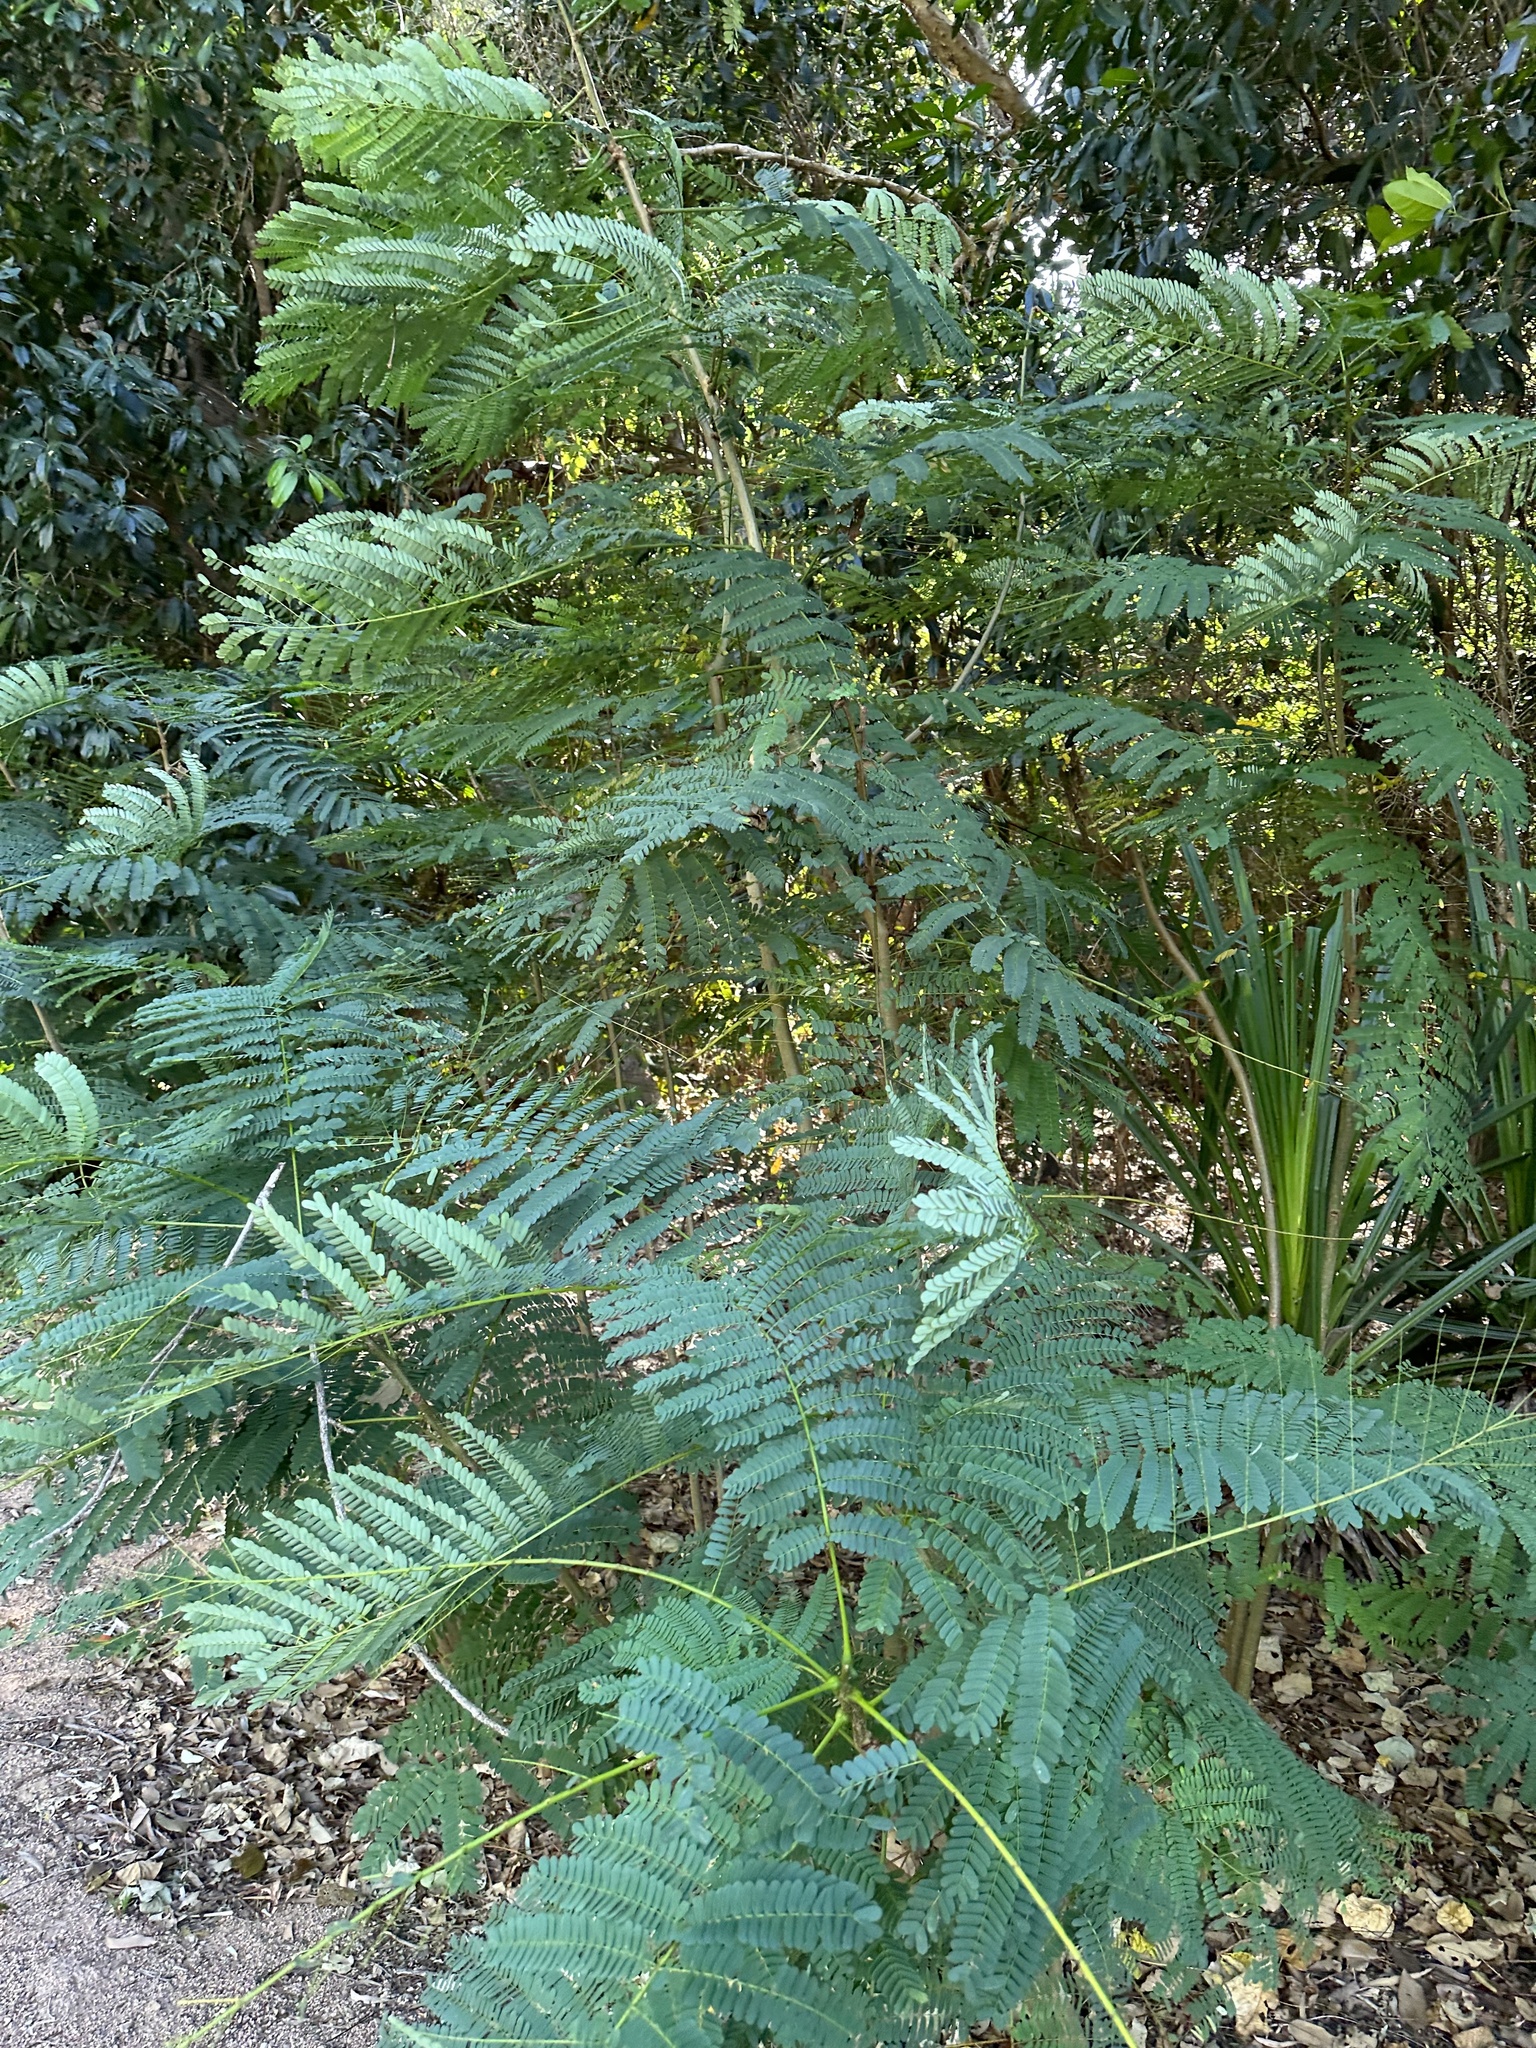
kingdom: Plantae
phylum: Tracheophyta
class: Magnoliopsida
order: Fabales
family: Fabaceae
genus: Delonix
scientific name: Delonix regia
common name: Royal poinciana
